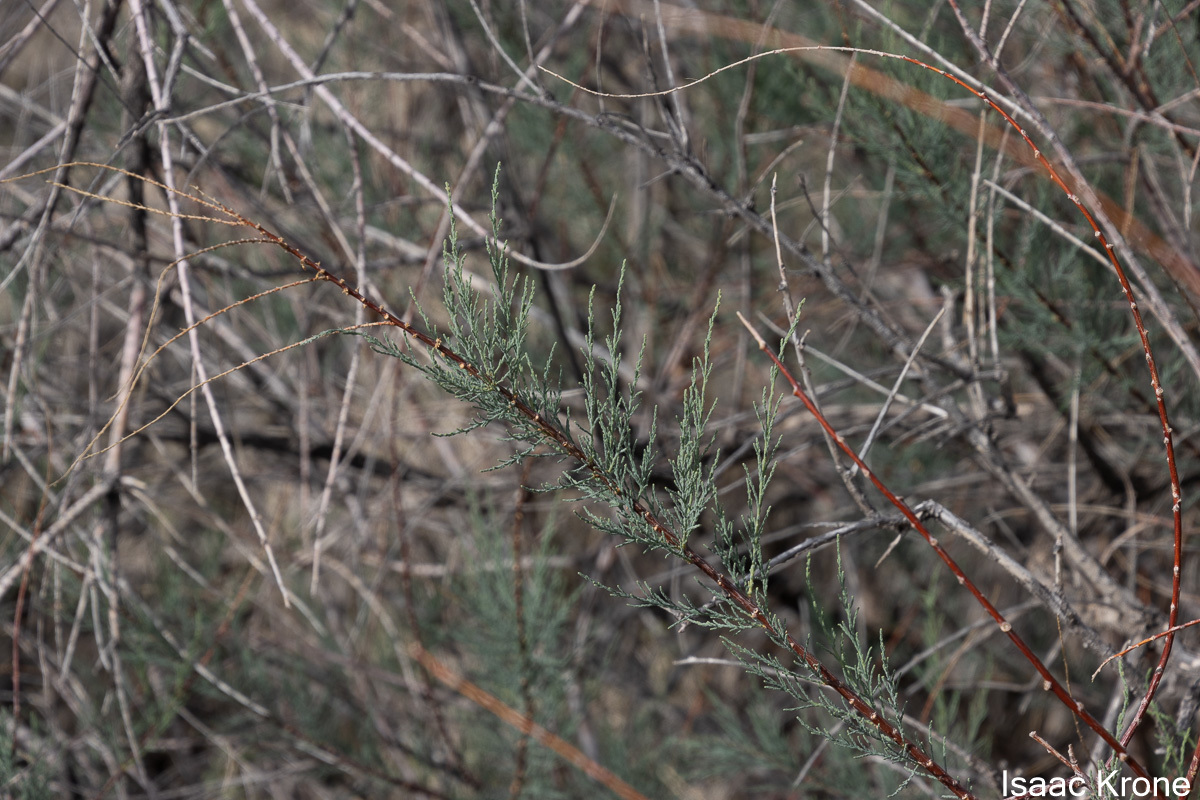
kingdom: Plantae
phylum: Tracheophyta
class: Magnoliopsida
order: Caryophyllales
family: Tamaricaceae
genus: Tamarix
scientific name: Tamarix
